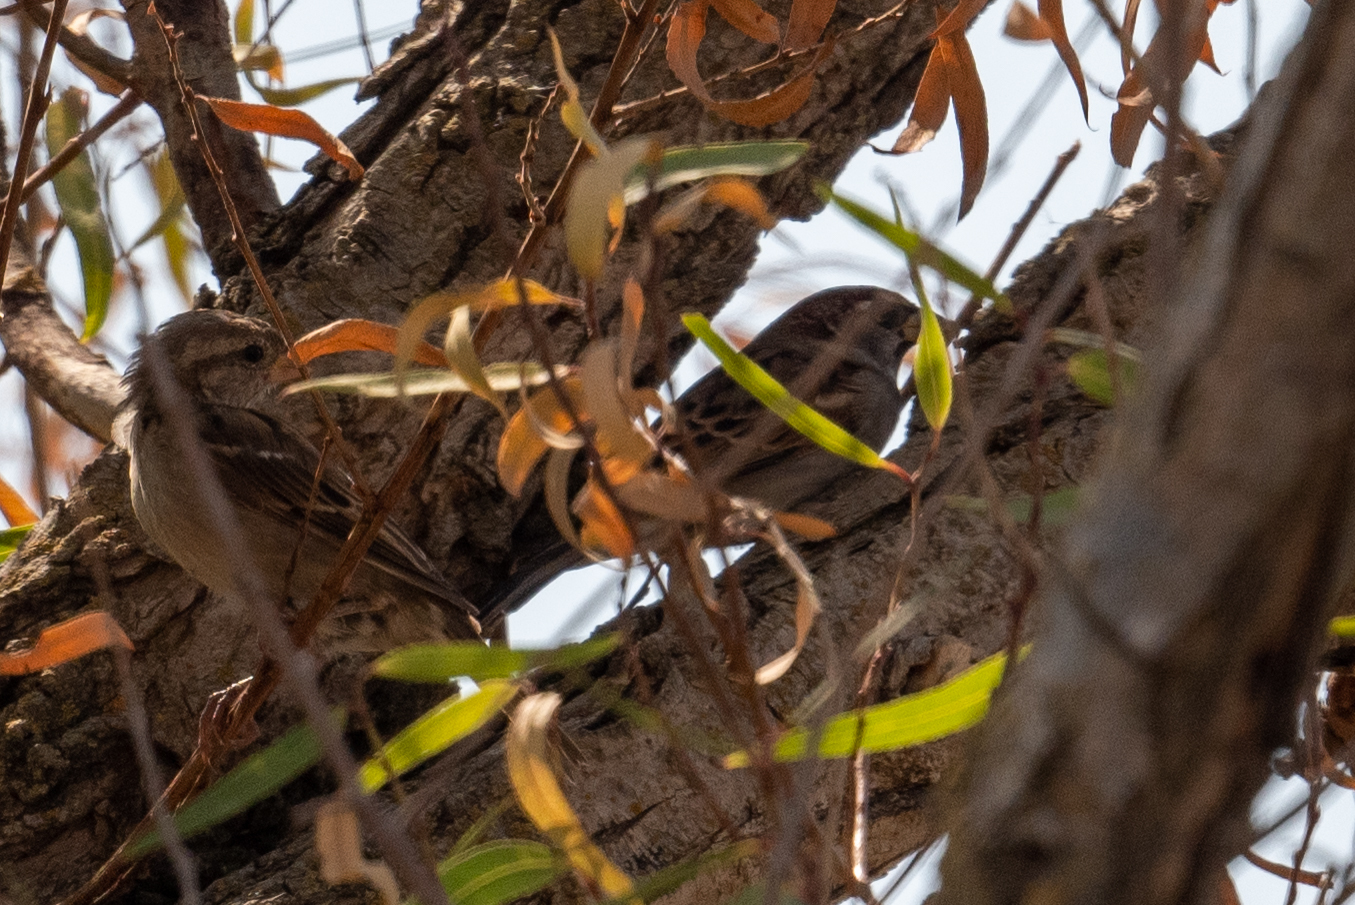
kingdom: Animalia
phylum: Chordata
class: Aves
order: Passeriformes
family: Passeridae
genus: Passer
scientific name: Passer domesticus
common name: House sparrow
